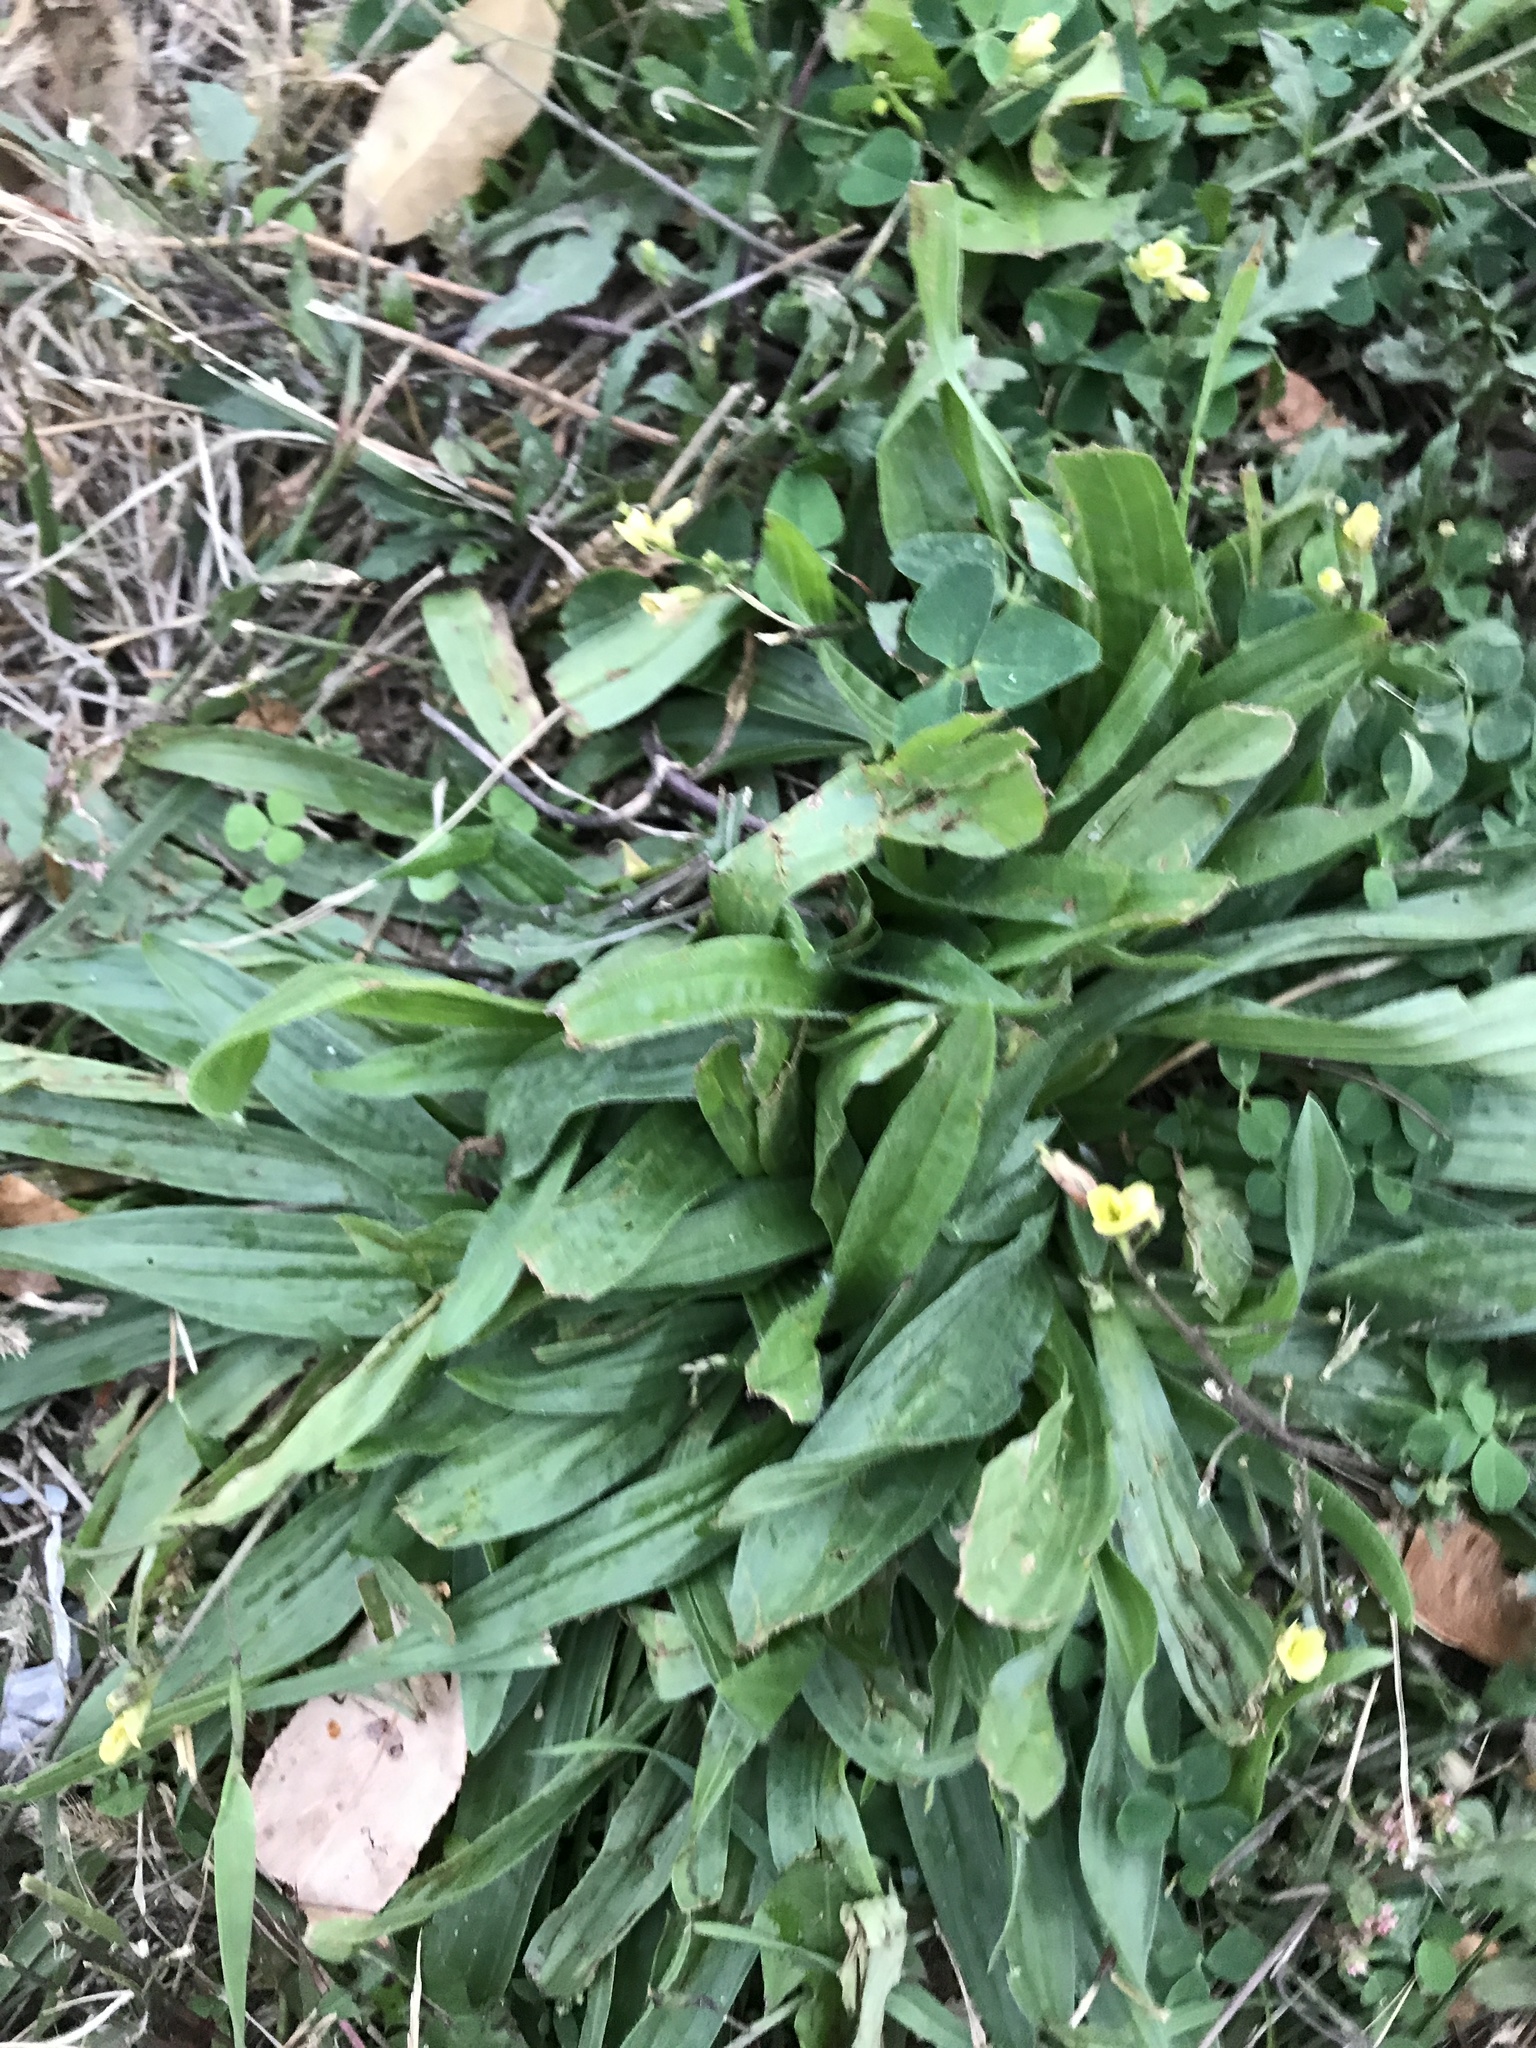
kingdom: Plantae
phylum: Tracheophyta
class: Magnoliopsida
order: Lamiales
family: Plantaginaceae
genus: Plantago
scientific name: Plantago lanceolata
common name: Ribwort plantain
